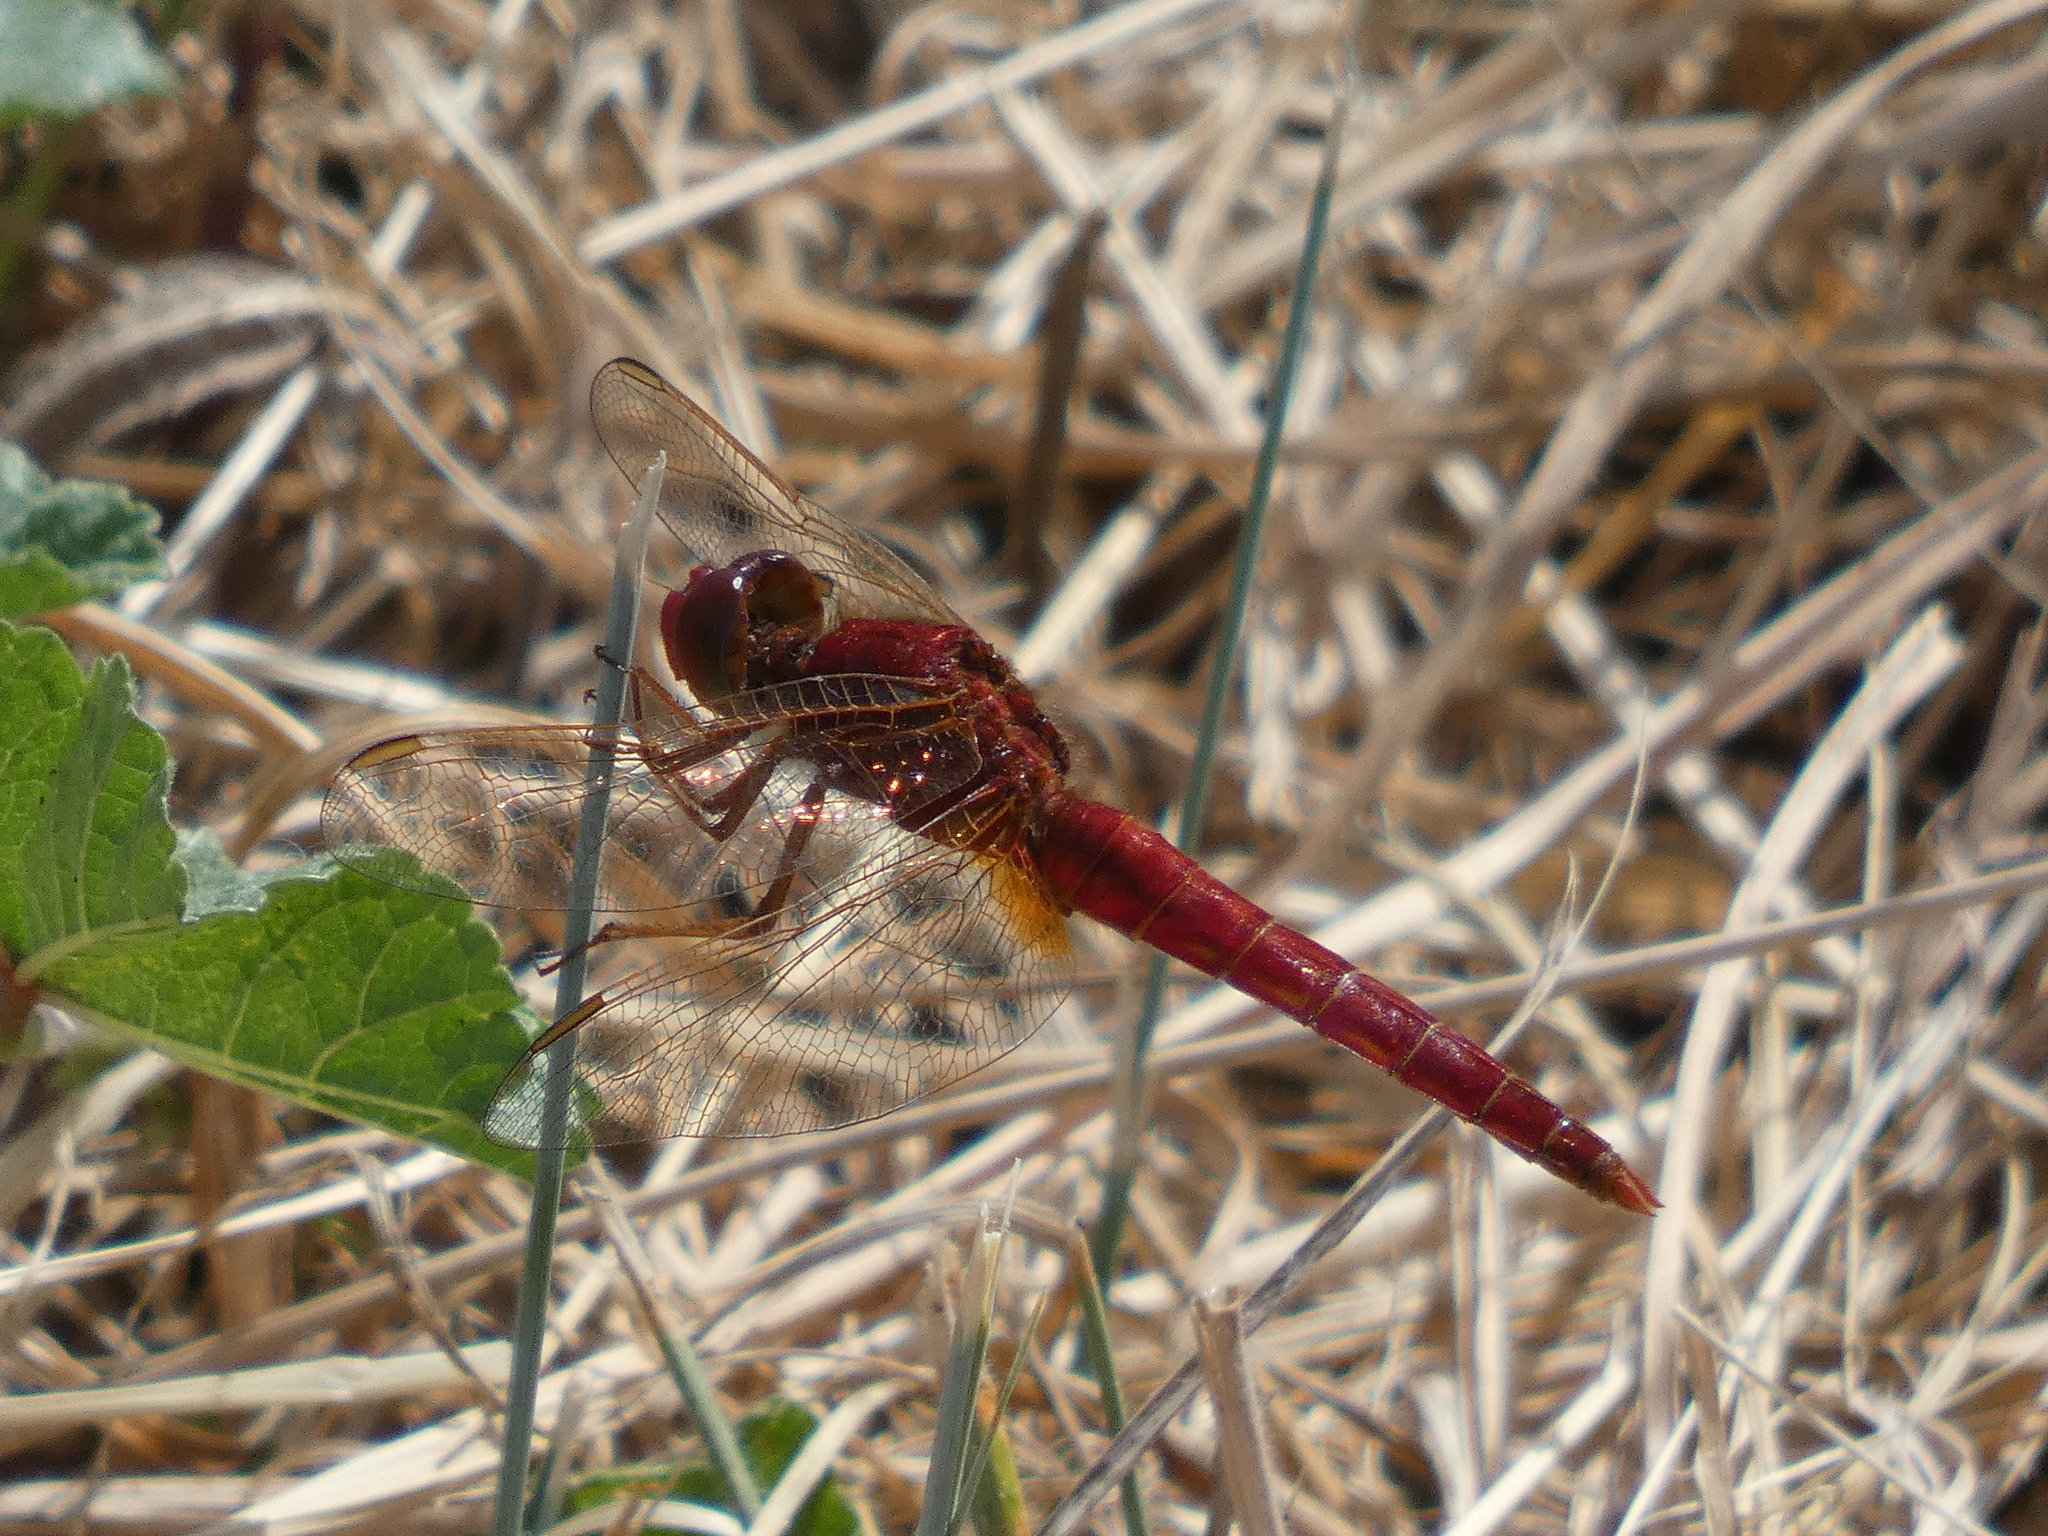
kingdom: Animalia
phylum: Arthropoda
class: Insecta
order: Odonata
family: Libellulidae
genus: Crocothemis
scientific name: Crocothemis erythraea
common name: Scarlet dragonfly
